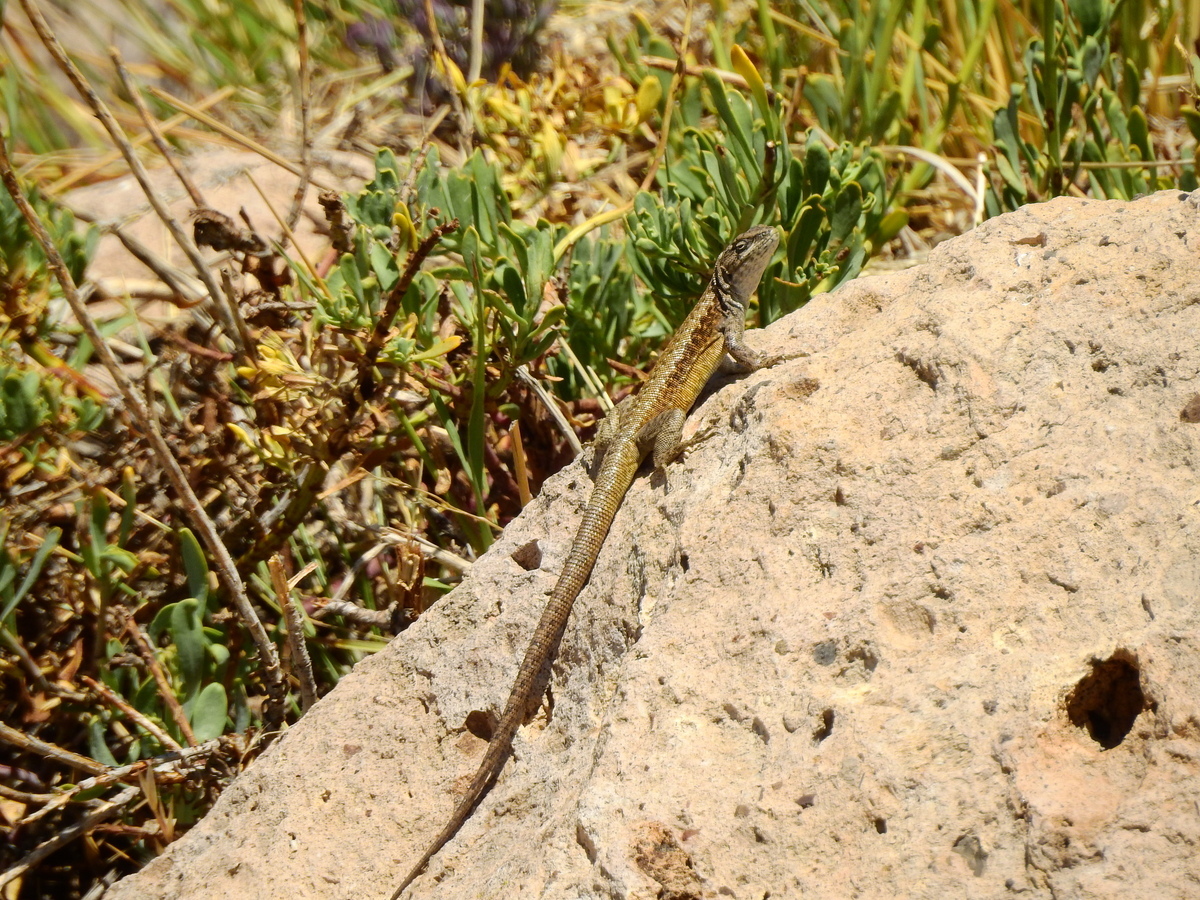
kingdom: Animalia
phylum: Chordata
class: Squamata
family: Liolaemidae
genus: Liolaemus
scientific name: Liolaemus smaug
